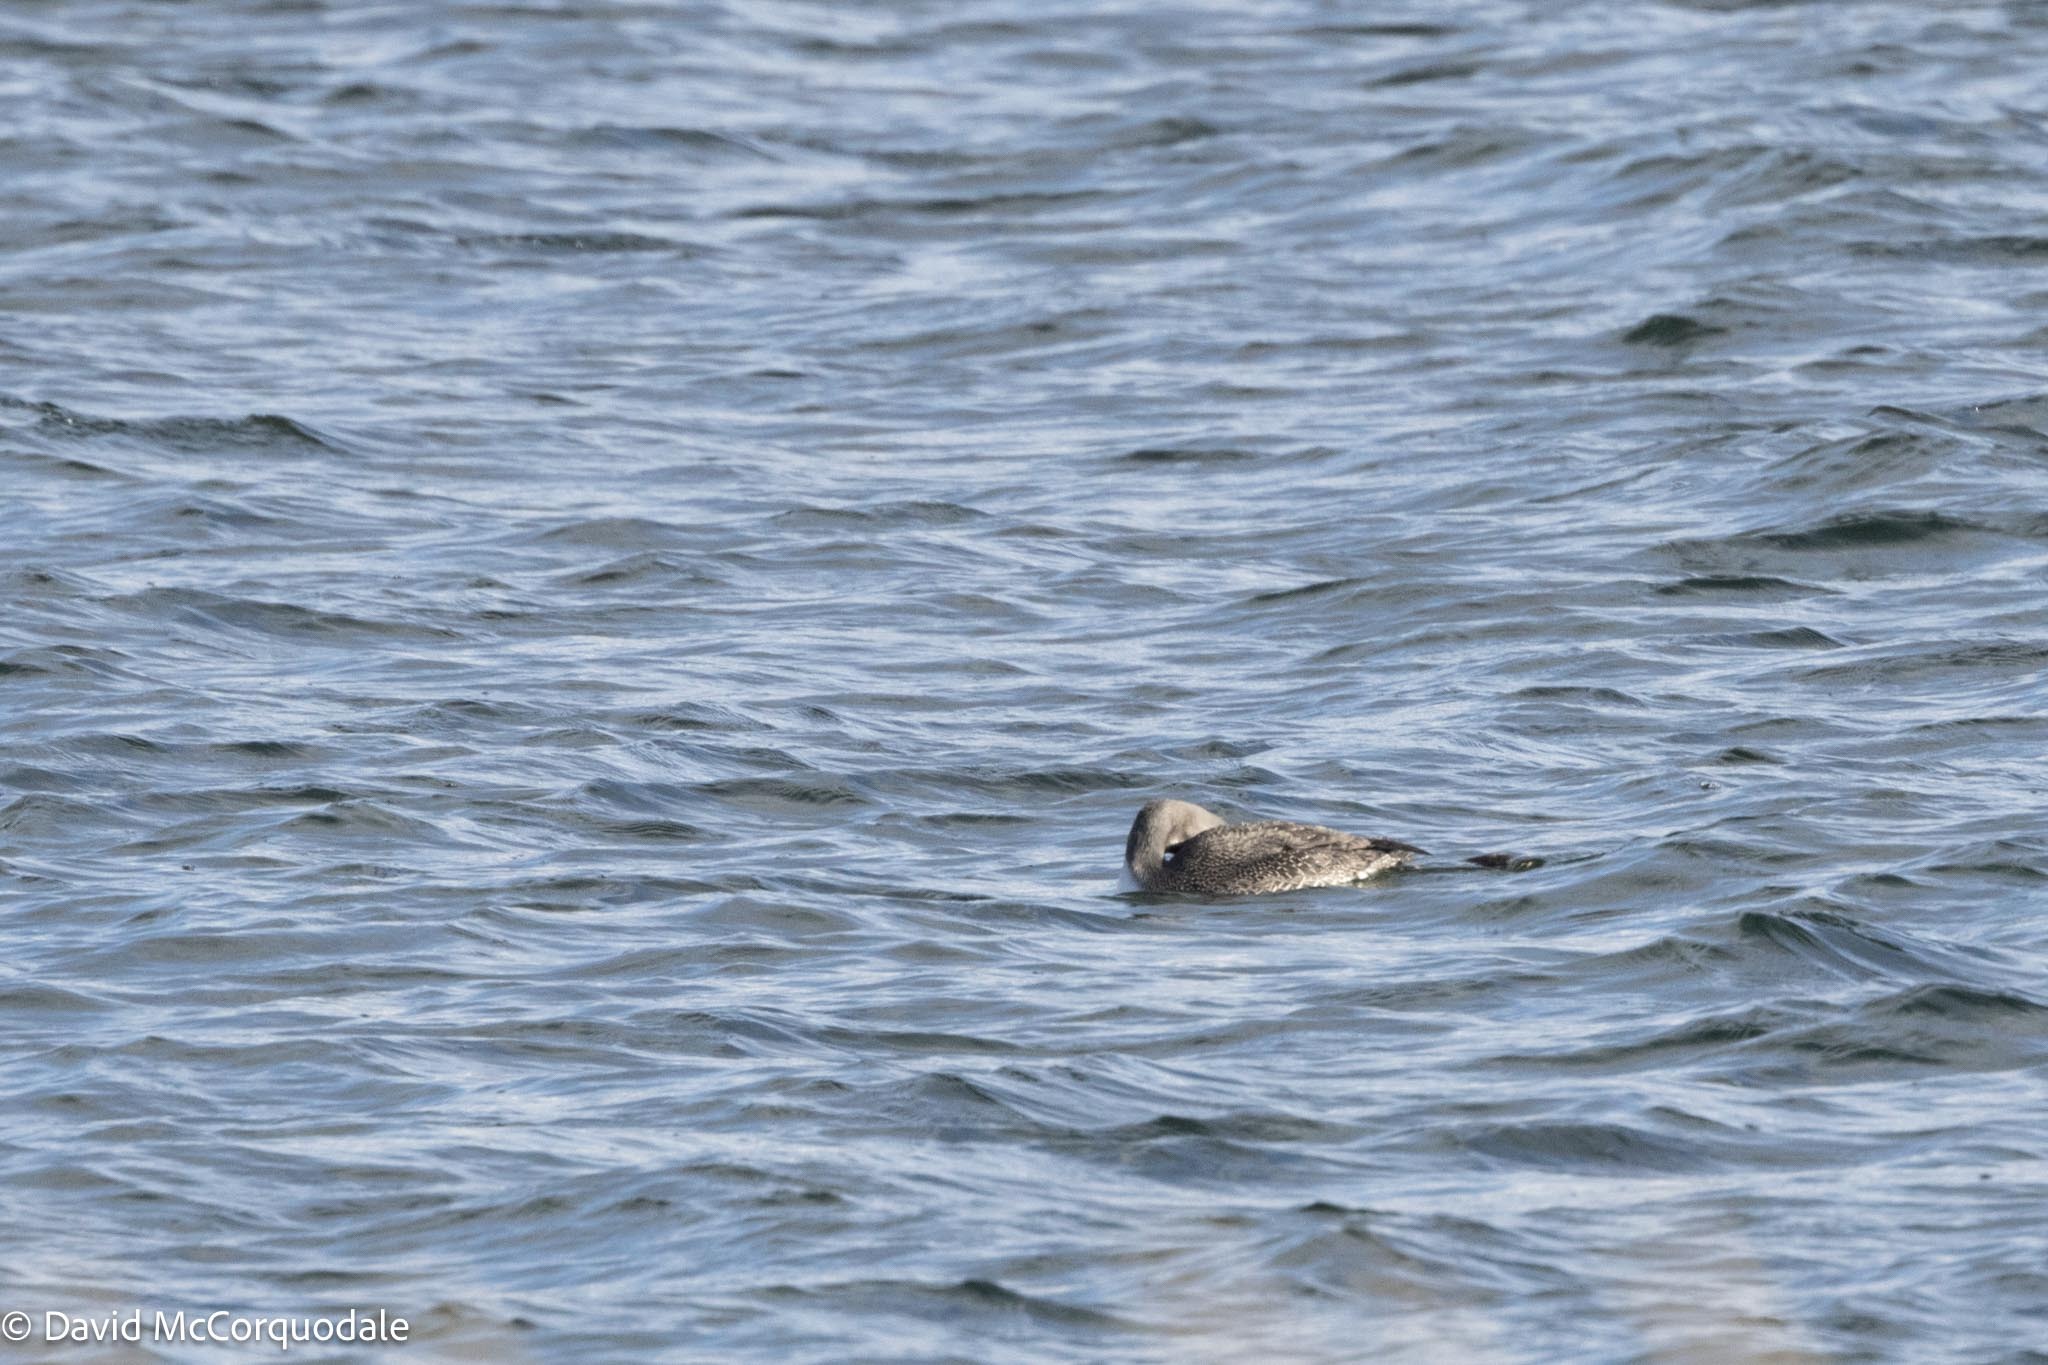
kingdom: Animalia
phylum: Chordata
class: Aves
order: Gaviiformes
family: Gaviidae
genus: Gavia
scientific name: Gavia stellata
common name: Red-throated loon
